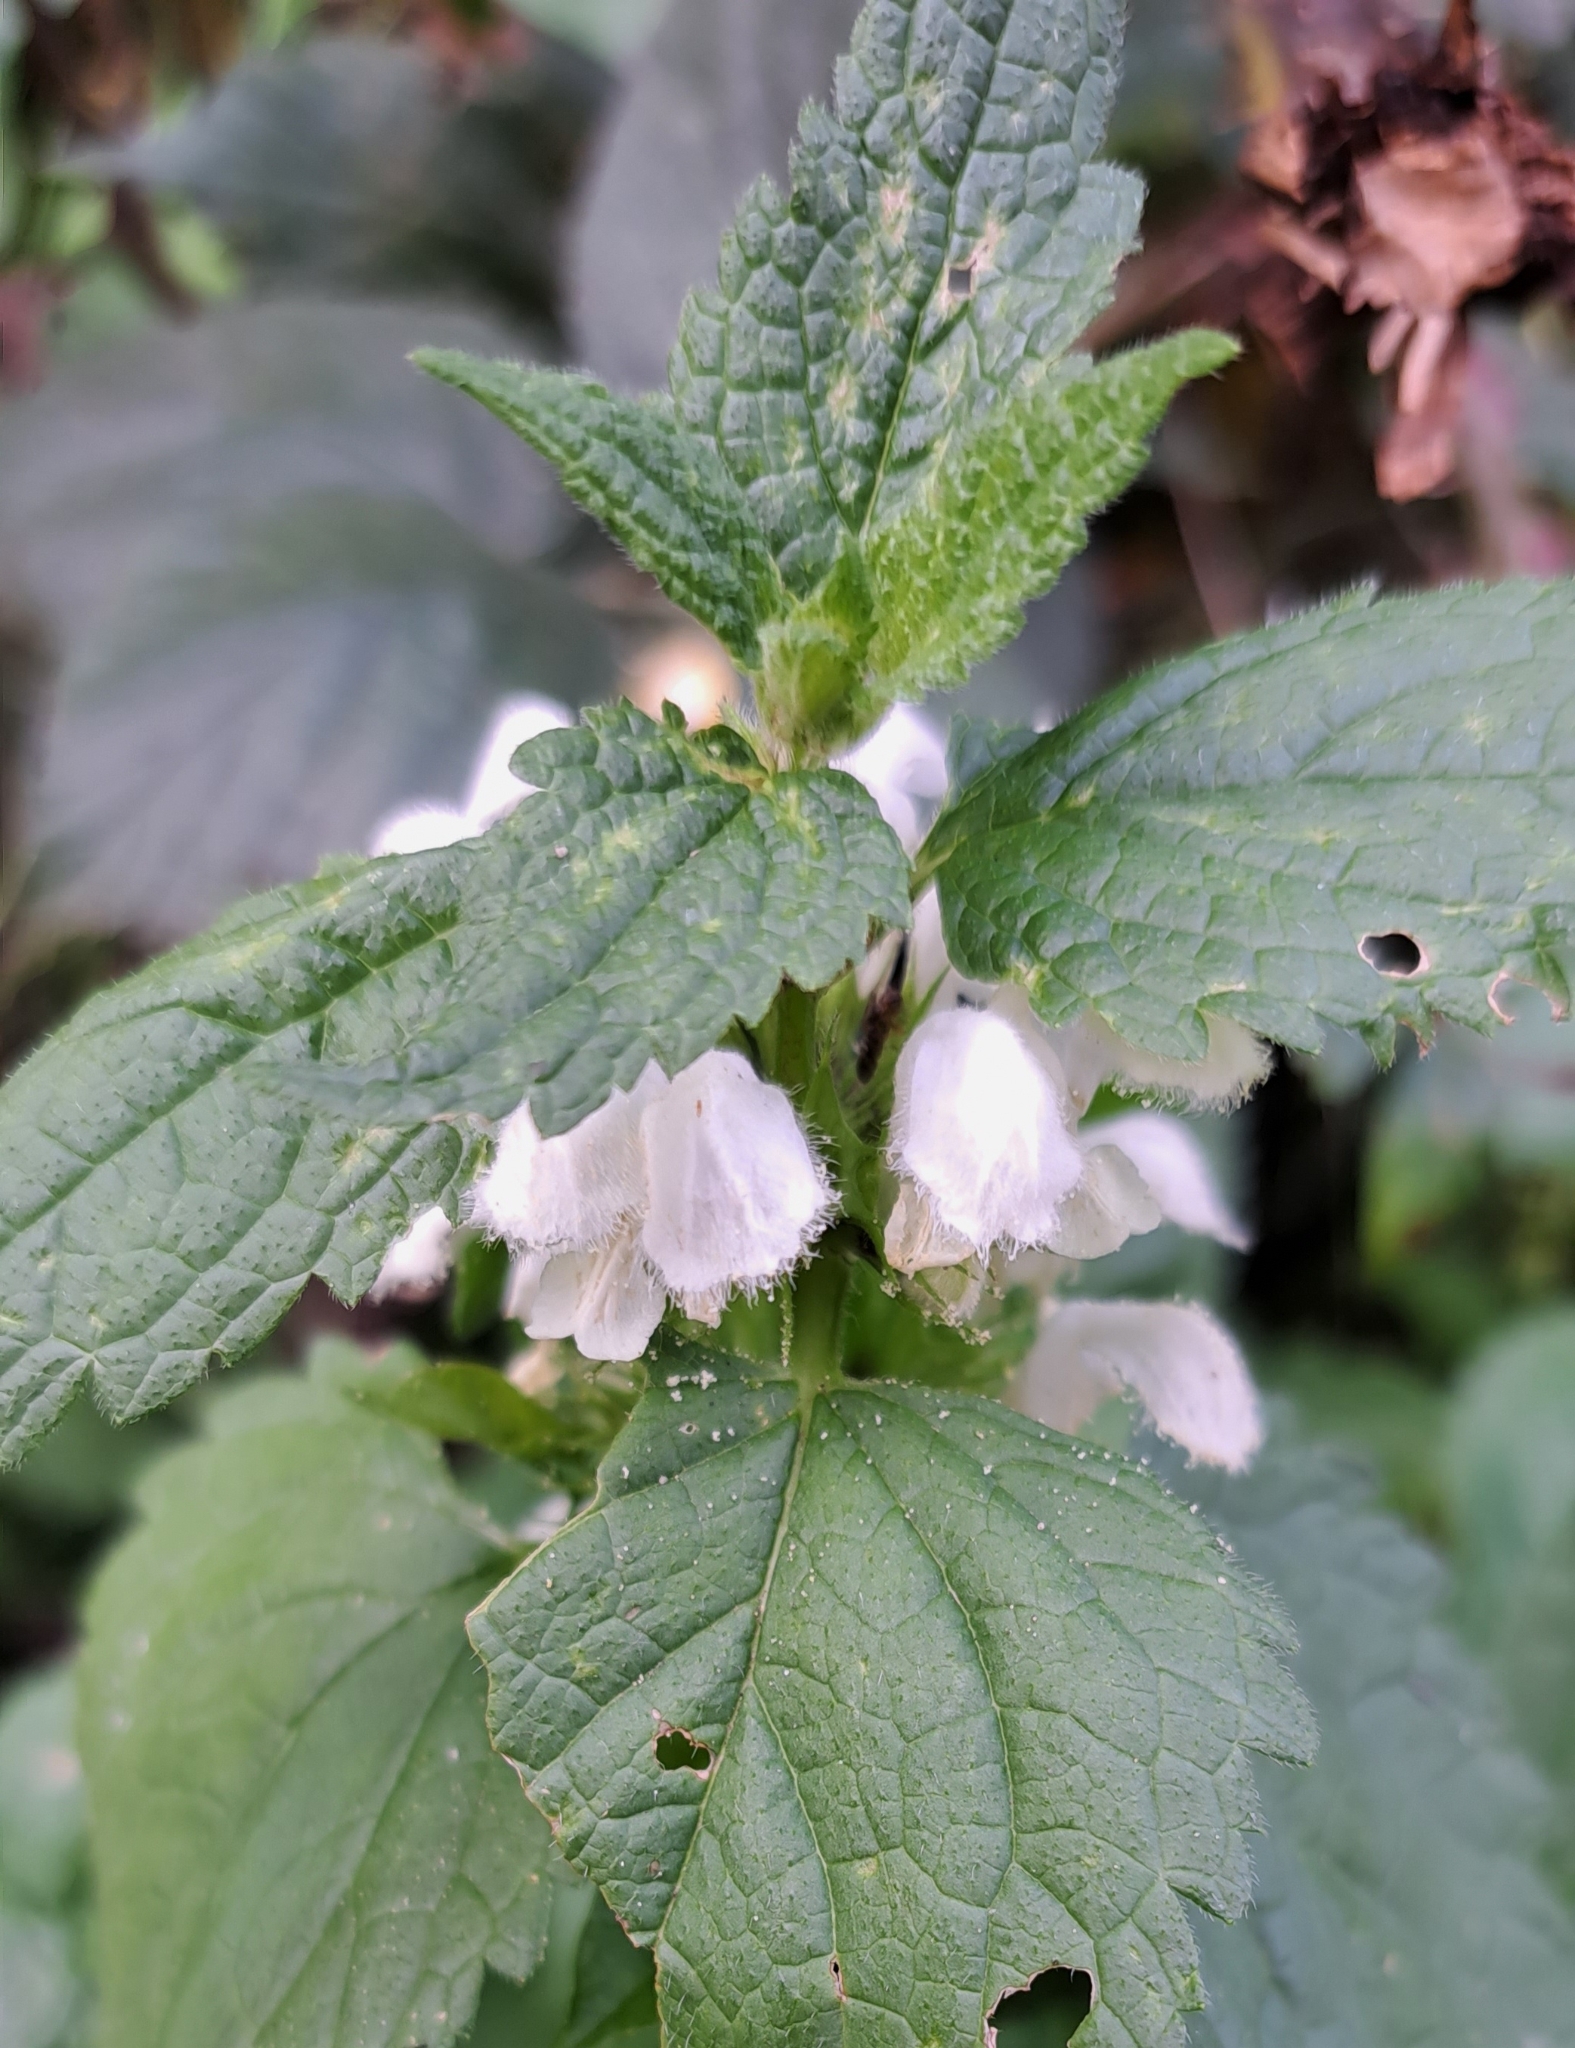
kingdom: Plantae
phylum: Tracheophyta
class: Magnoliopsida
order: Lamiales
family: Lamiaceae
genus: Lamium
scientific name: Lamium album
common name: White dead-nettle
